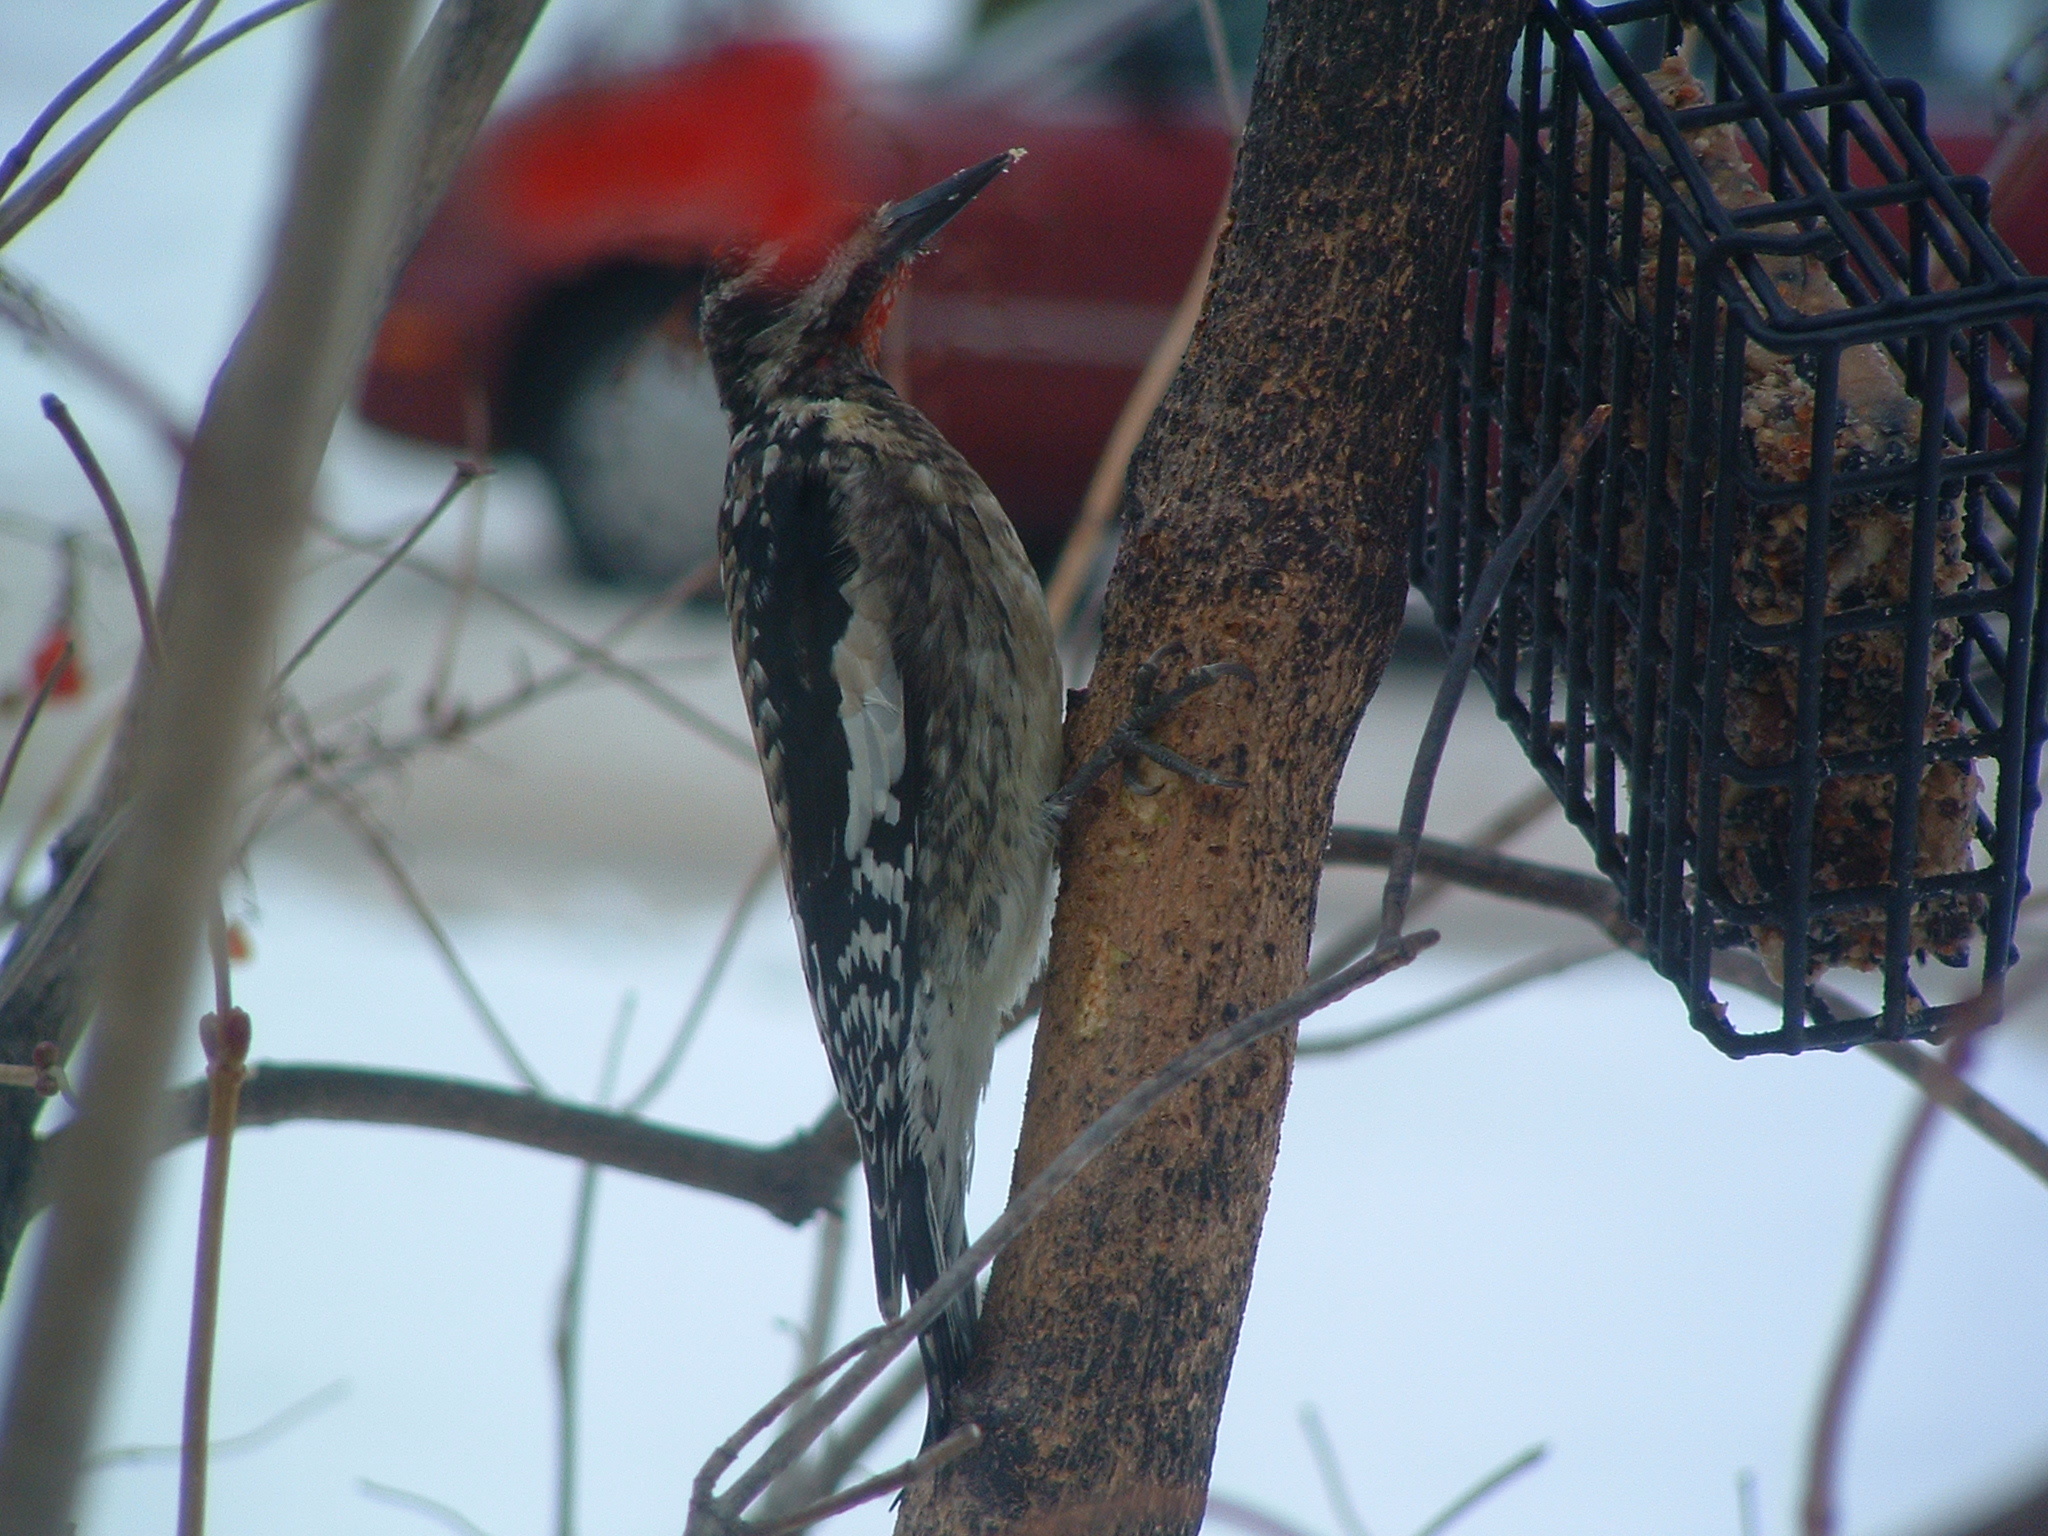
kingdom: Animalia
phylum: Chordata
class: Aves
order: Piciformes
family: Picidae
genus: Sphyrapicus
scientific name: Sphyrapicus varius
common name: Yellow-bellied sapsucker
